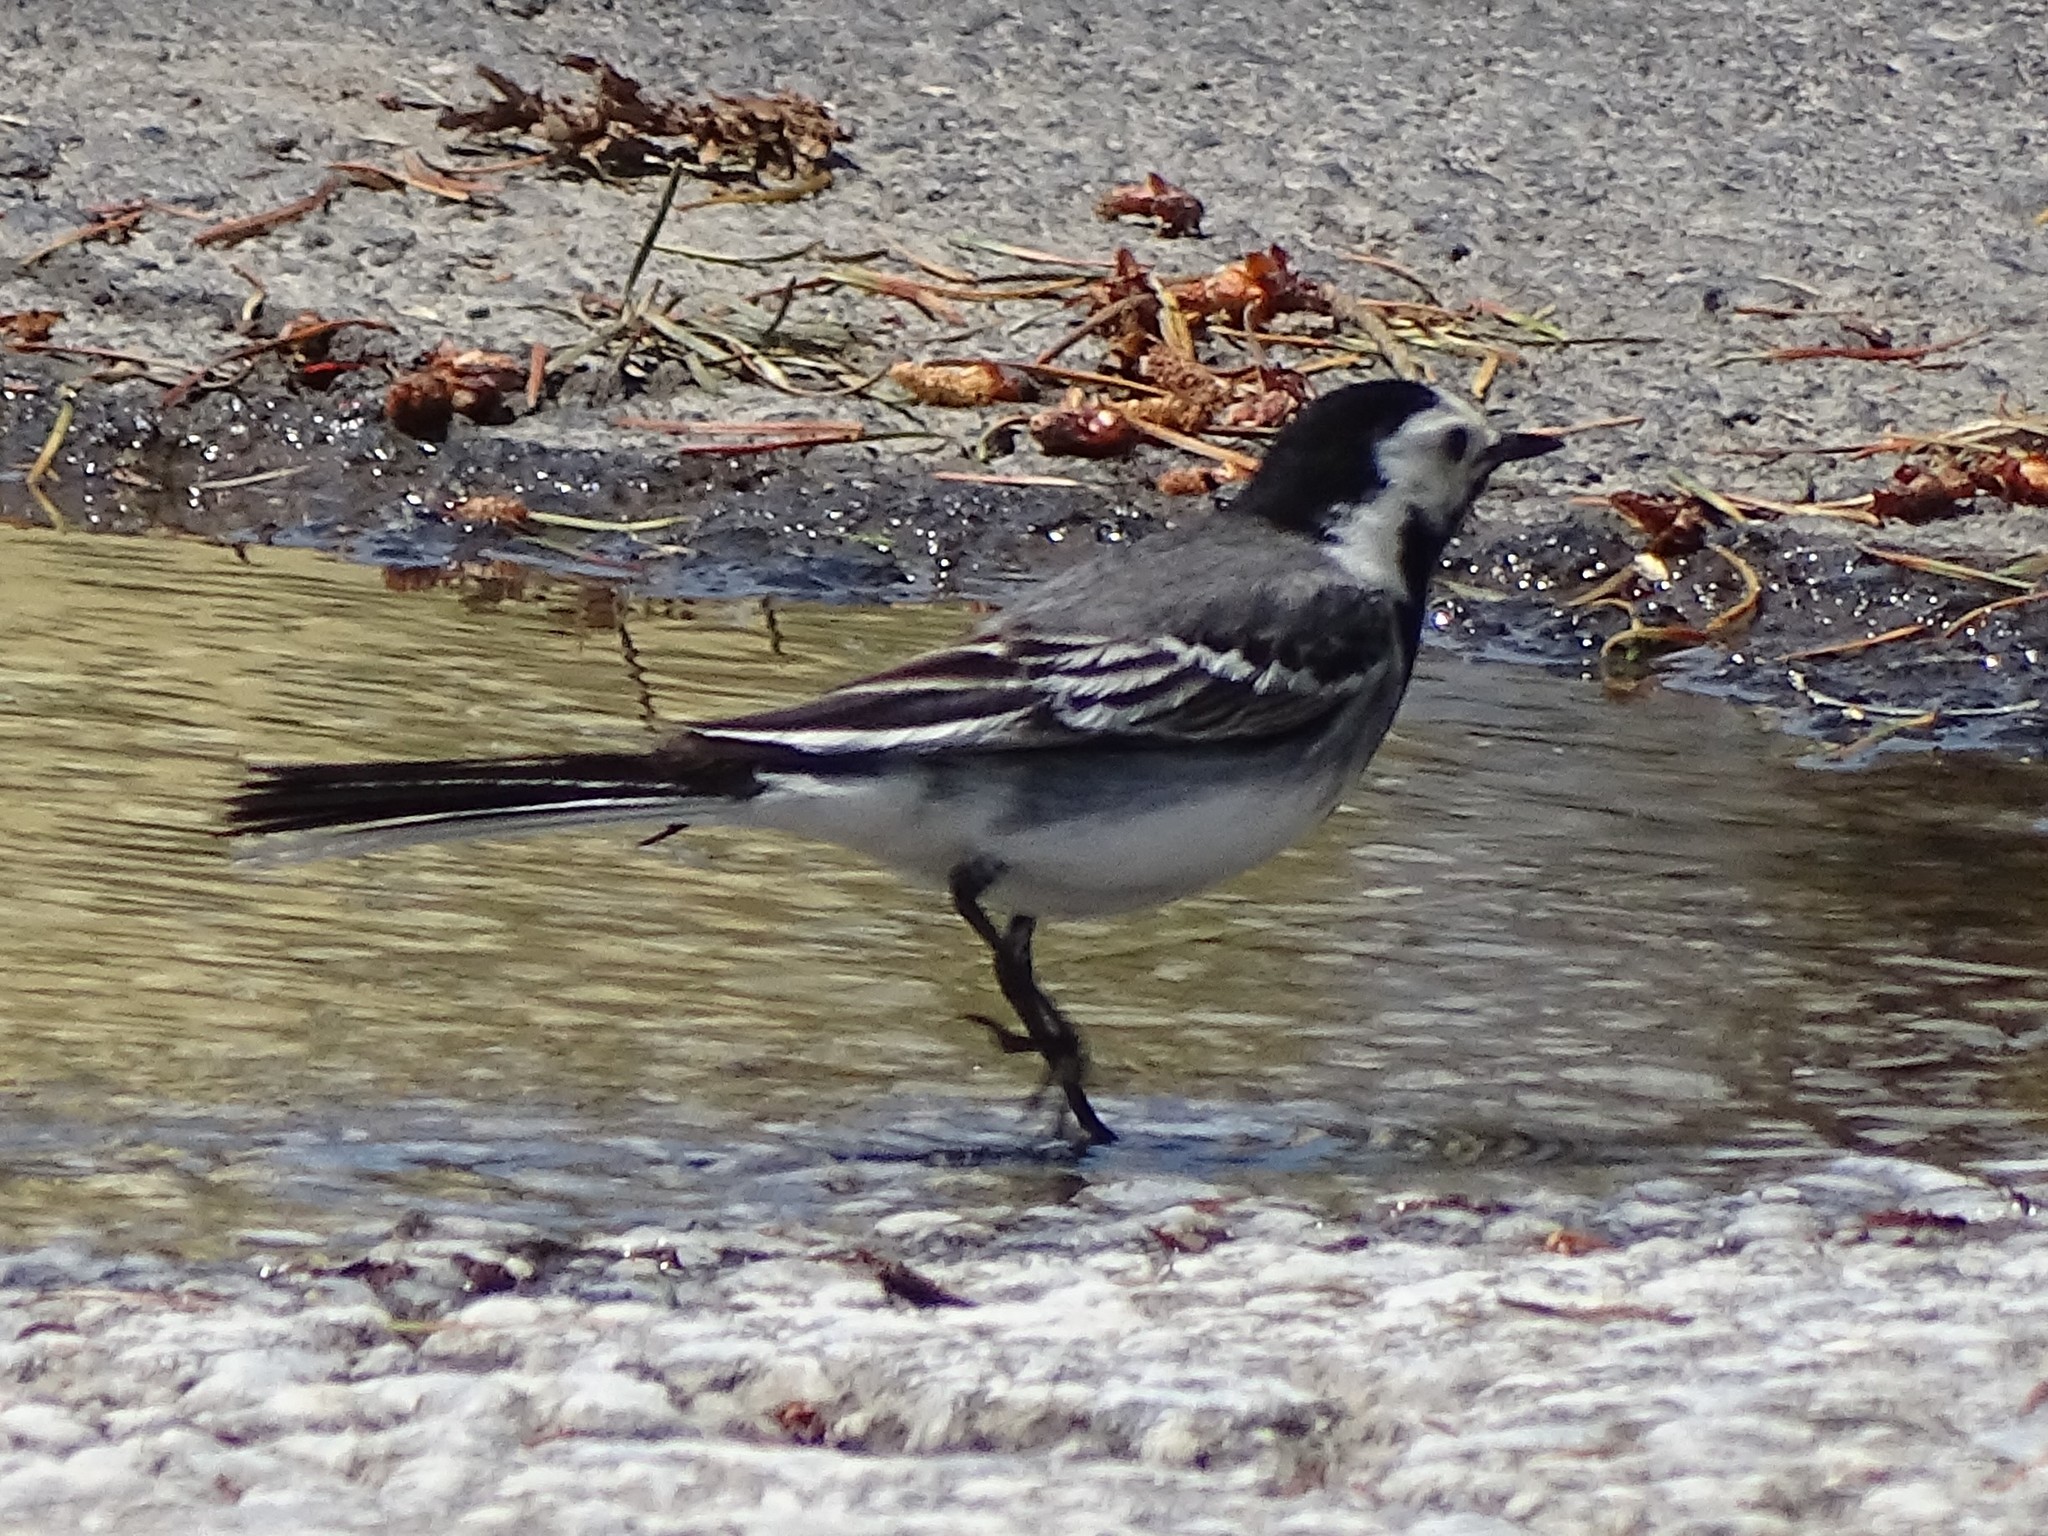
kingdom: Animalia
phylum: Chordata
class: Aves
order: Passeriformes
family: Motacillidae
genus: Motacilla
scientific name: Motacilla alba
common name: White wagtail
